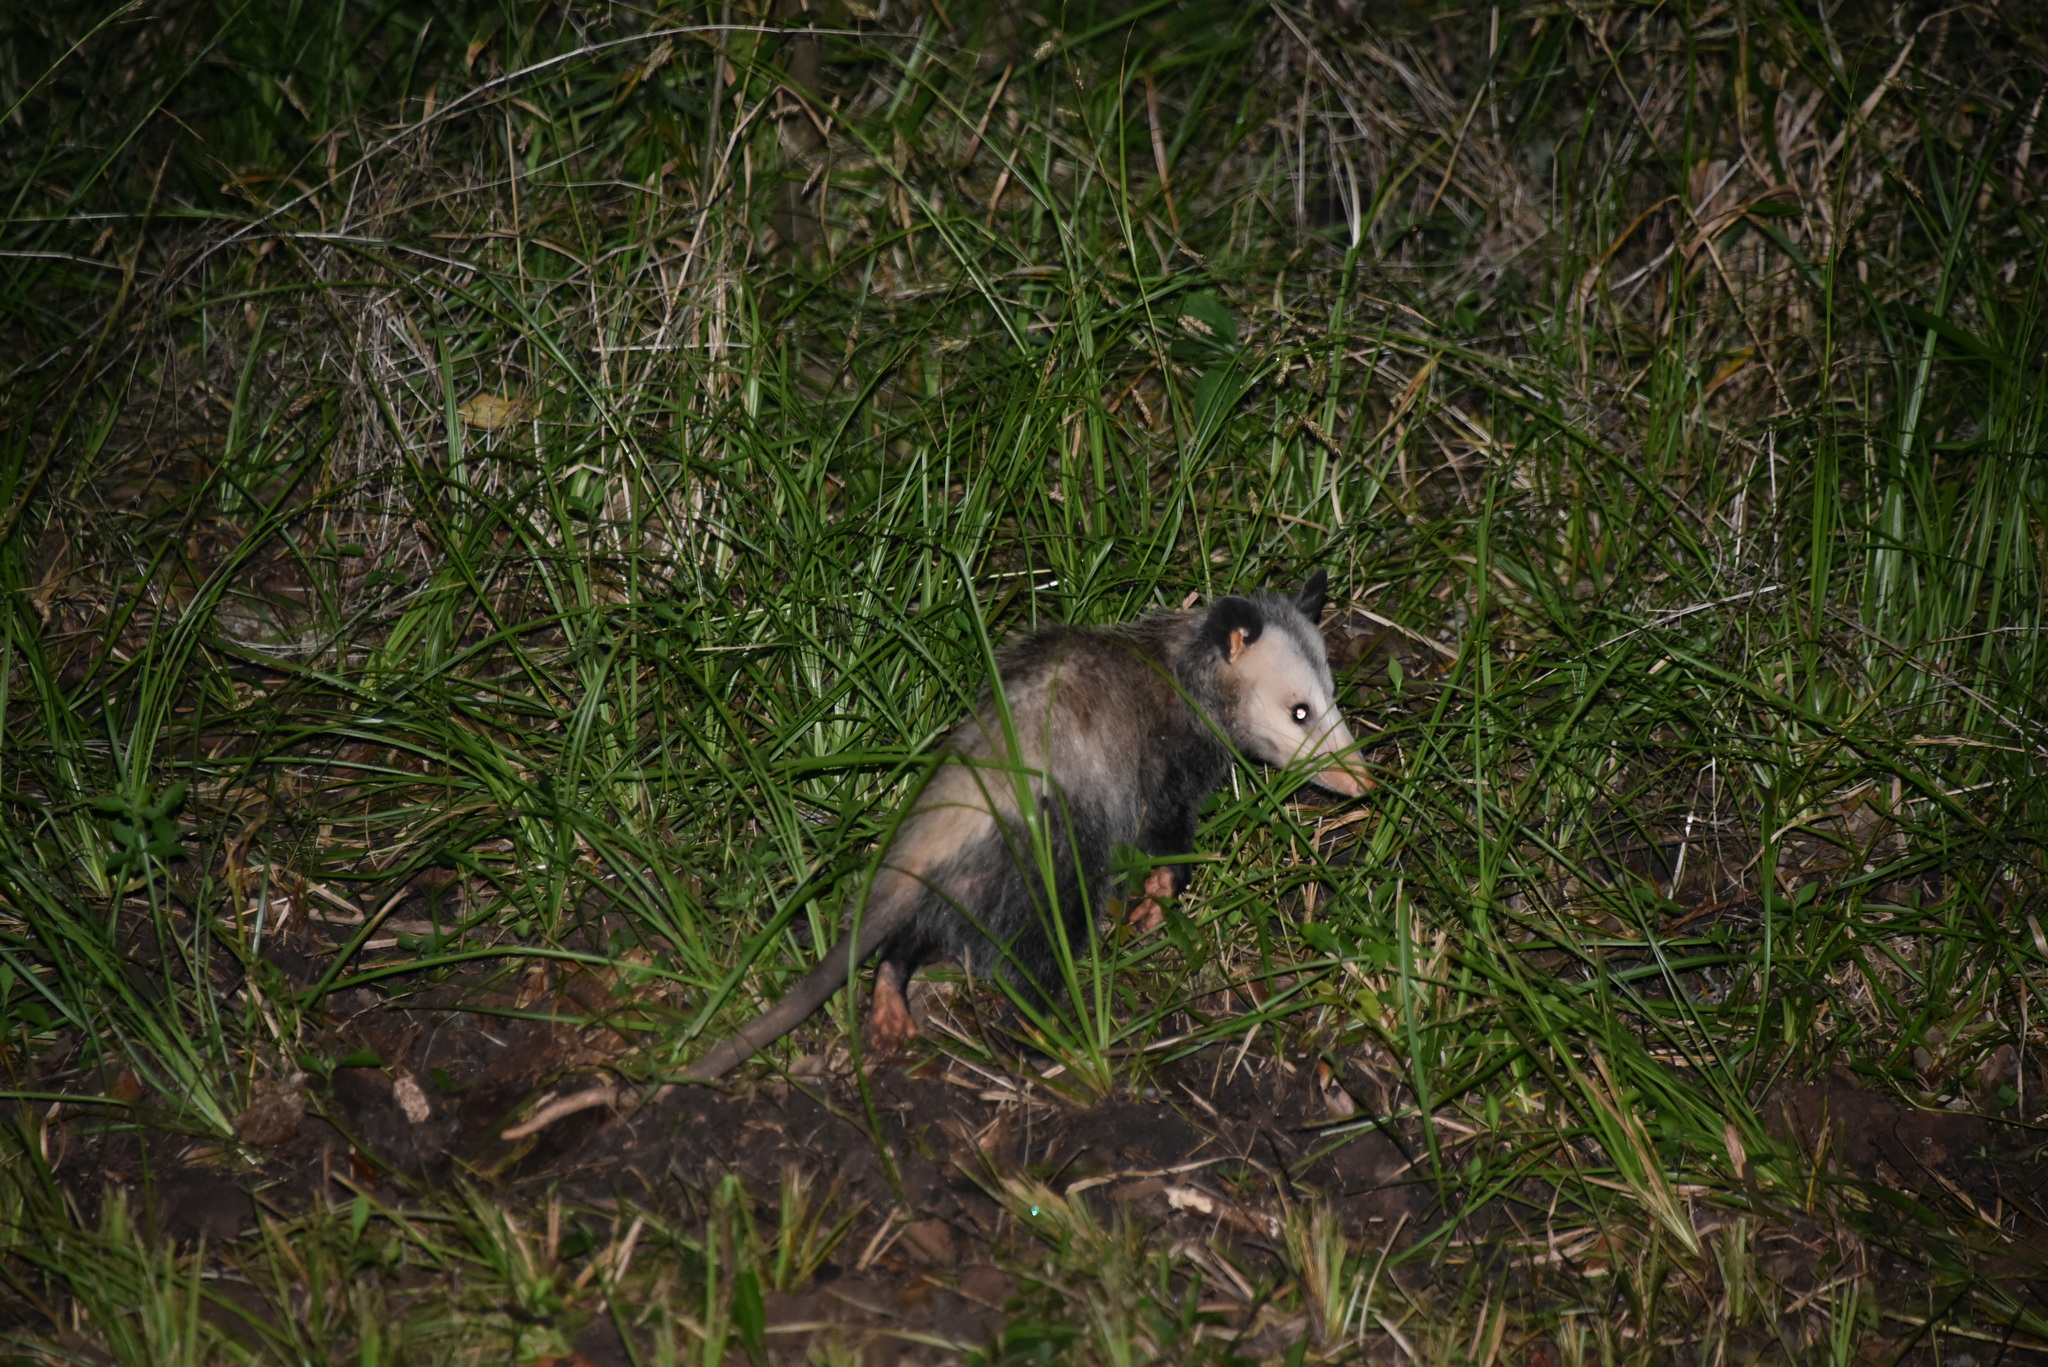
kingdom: Animalia
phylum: Chordata
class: Mammalia
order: Didelphimorphia
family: Didelphidae
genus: Didelphis
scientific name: Didelphis virginiana
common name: Virginia opossum
